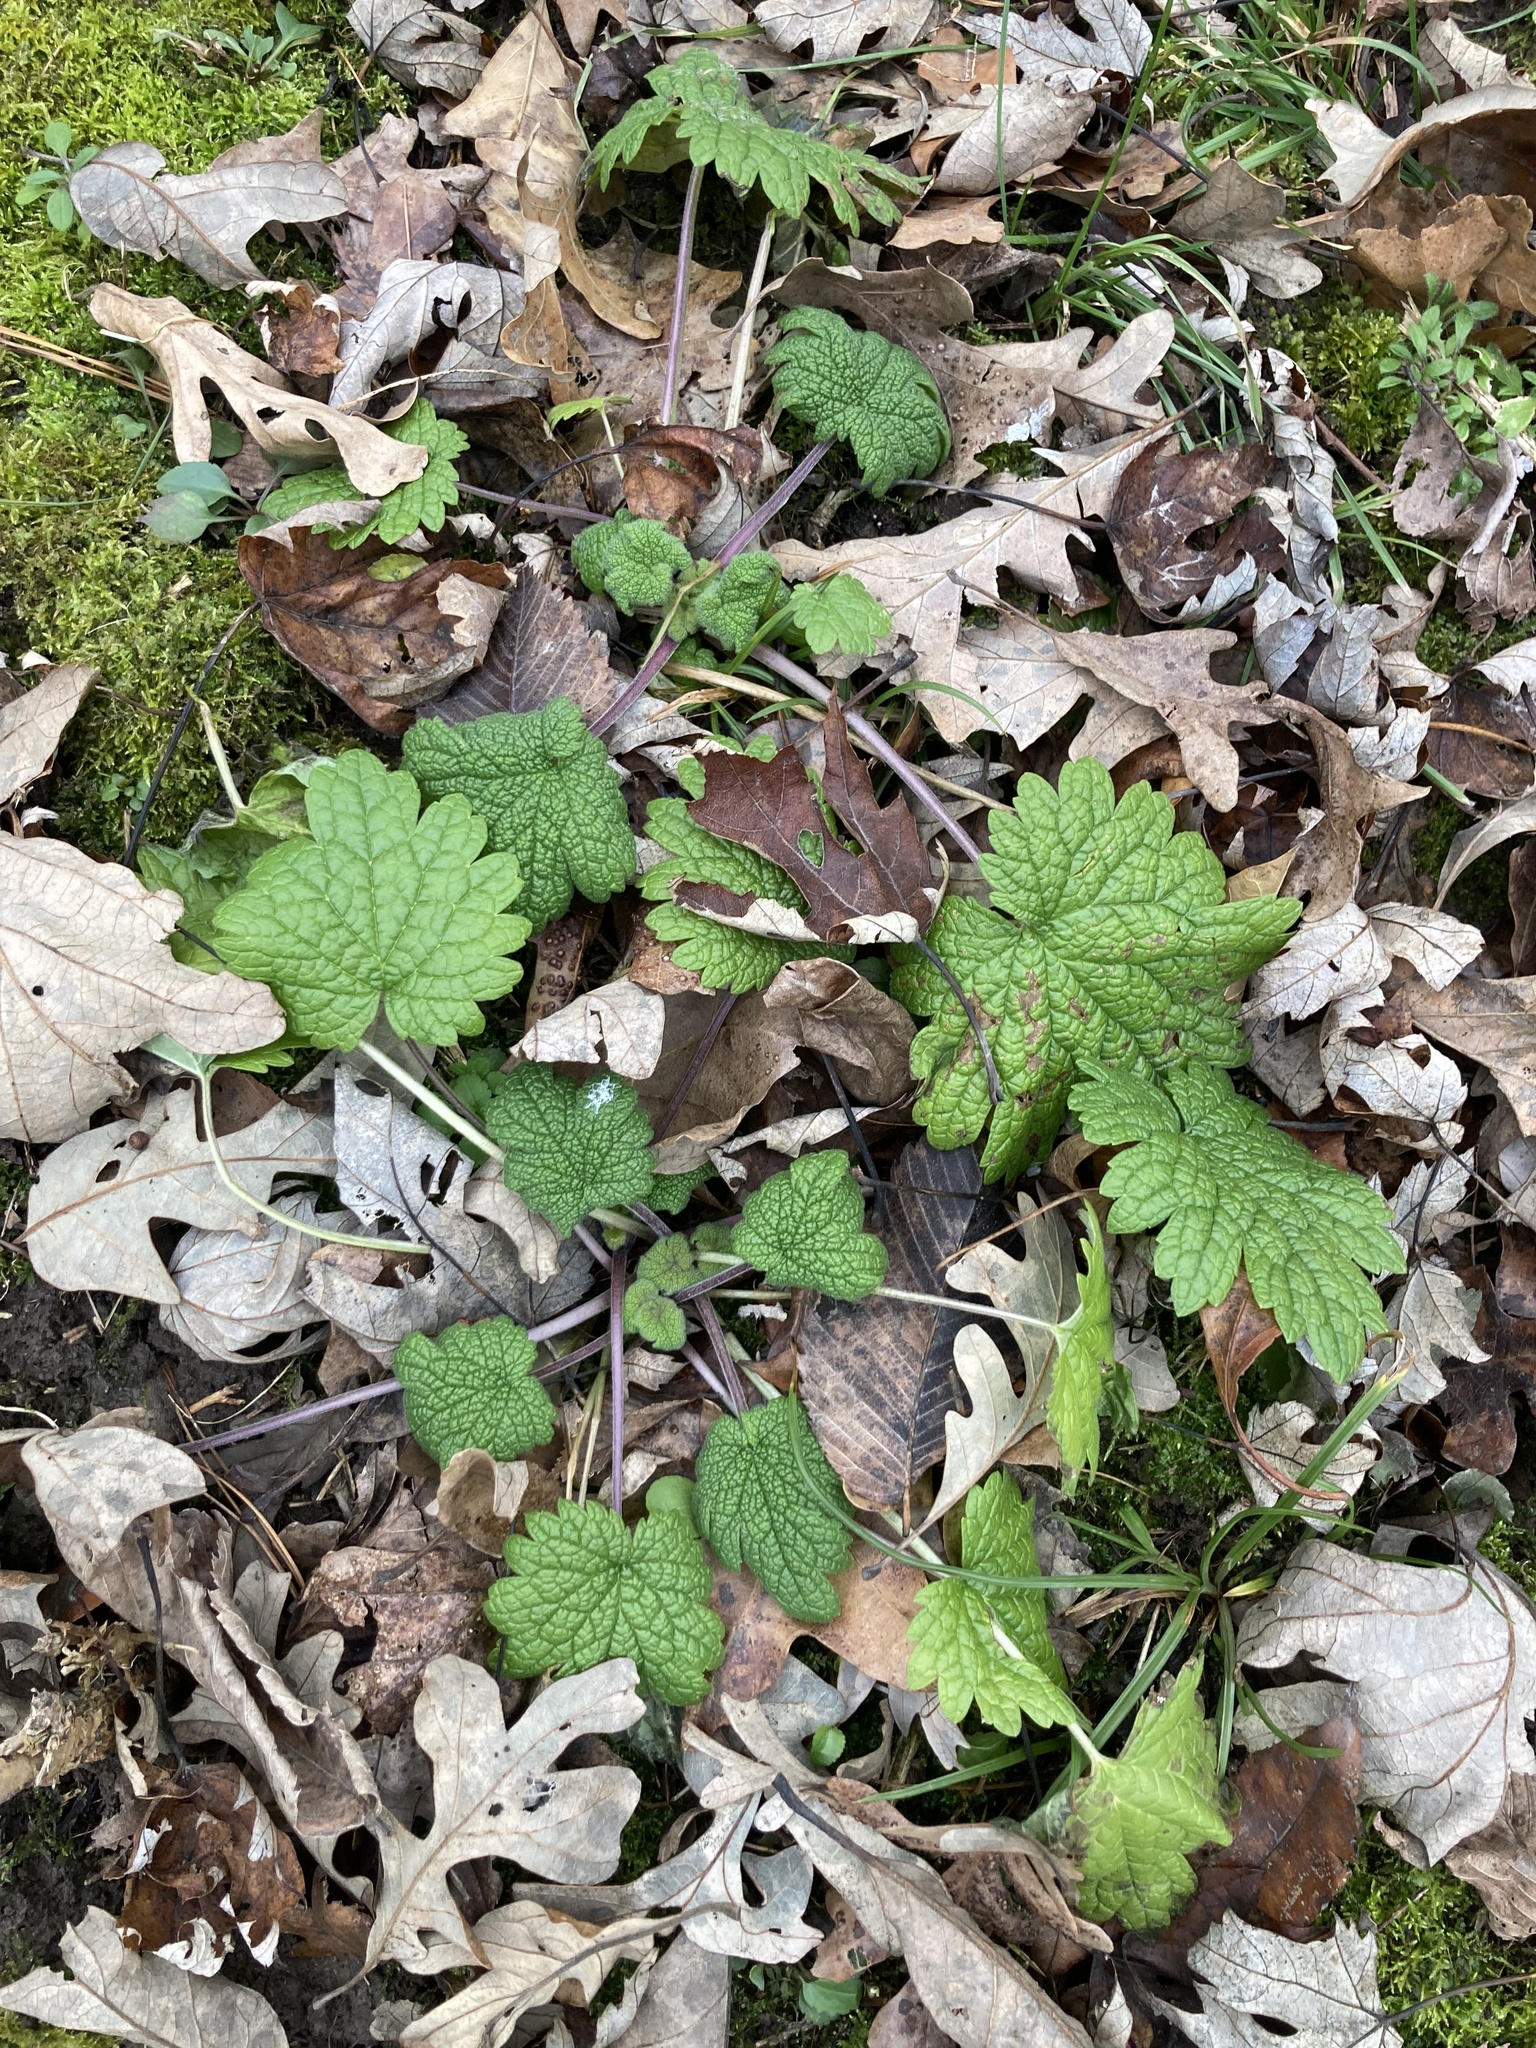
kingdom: Plantae
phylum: Tracheophyta
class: Magnoliopsida
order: Lamiales
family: Lamiaceae
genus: Leonurus
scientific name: Leonurus cardiaca
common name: Motherwort
